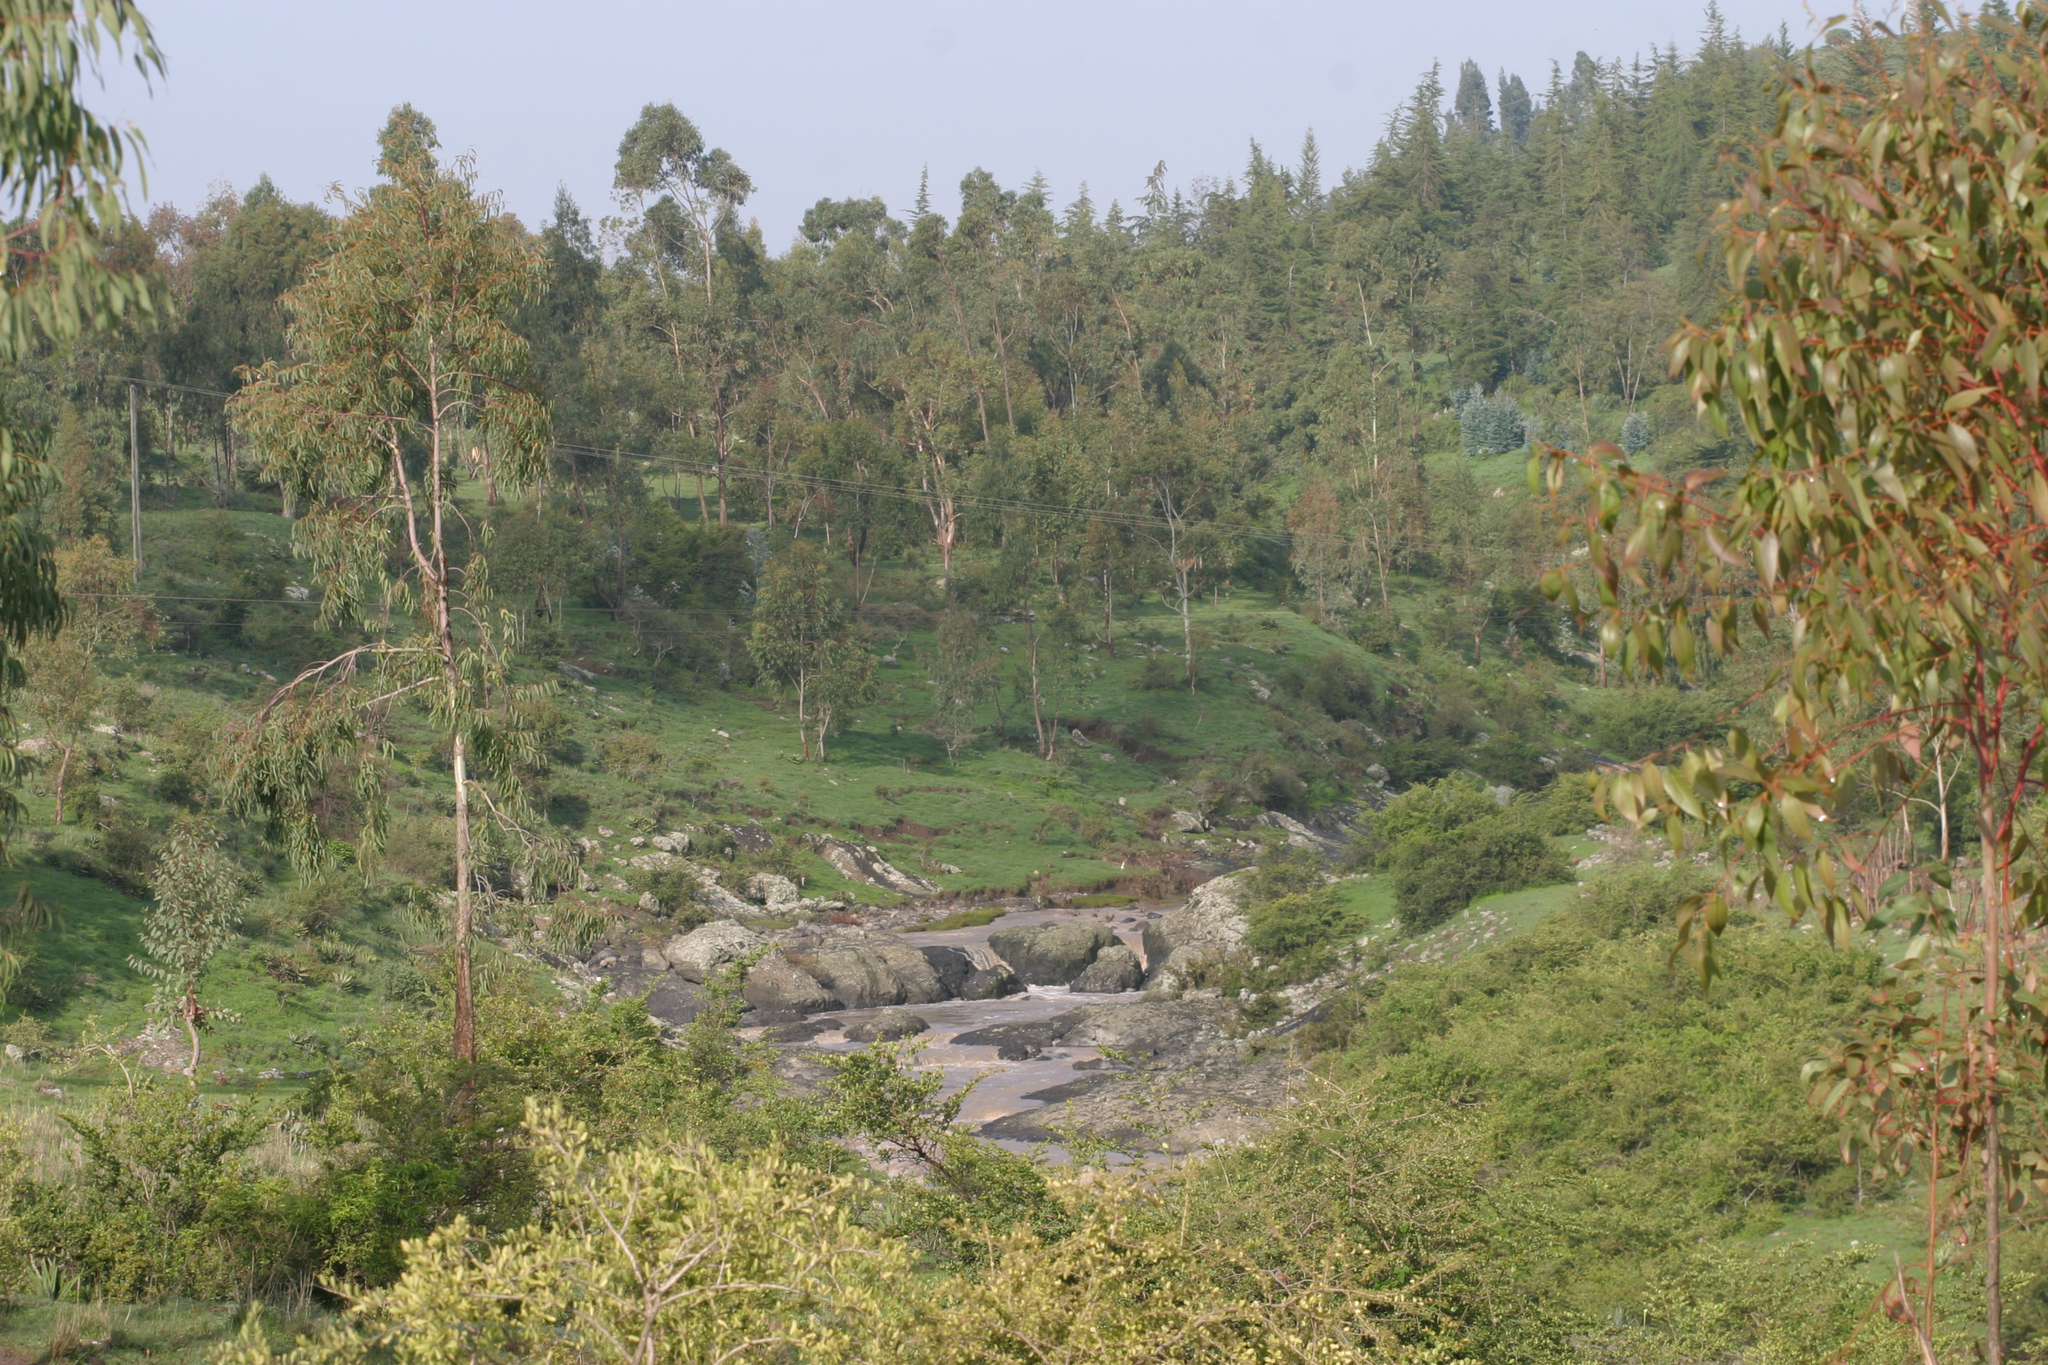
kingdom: Animalia
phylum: Arthropoda
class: Insecta
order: Odonata
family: Coenagrionidae
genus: Proischnura
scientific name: Proischnura subfurcata
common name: Fork-tailed bluet
